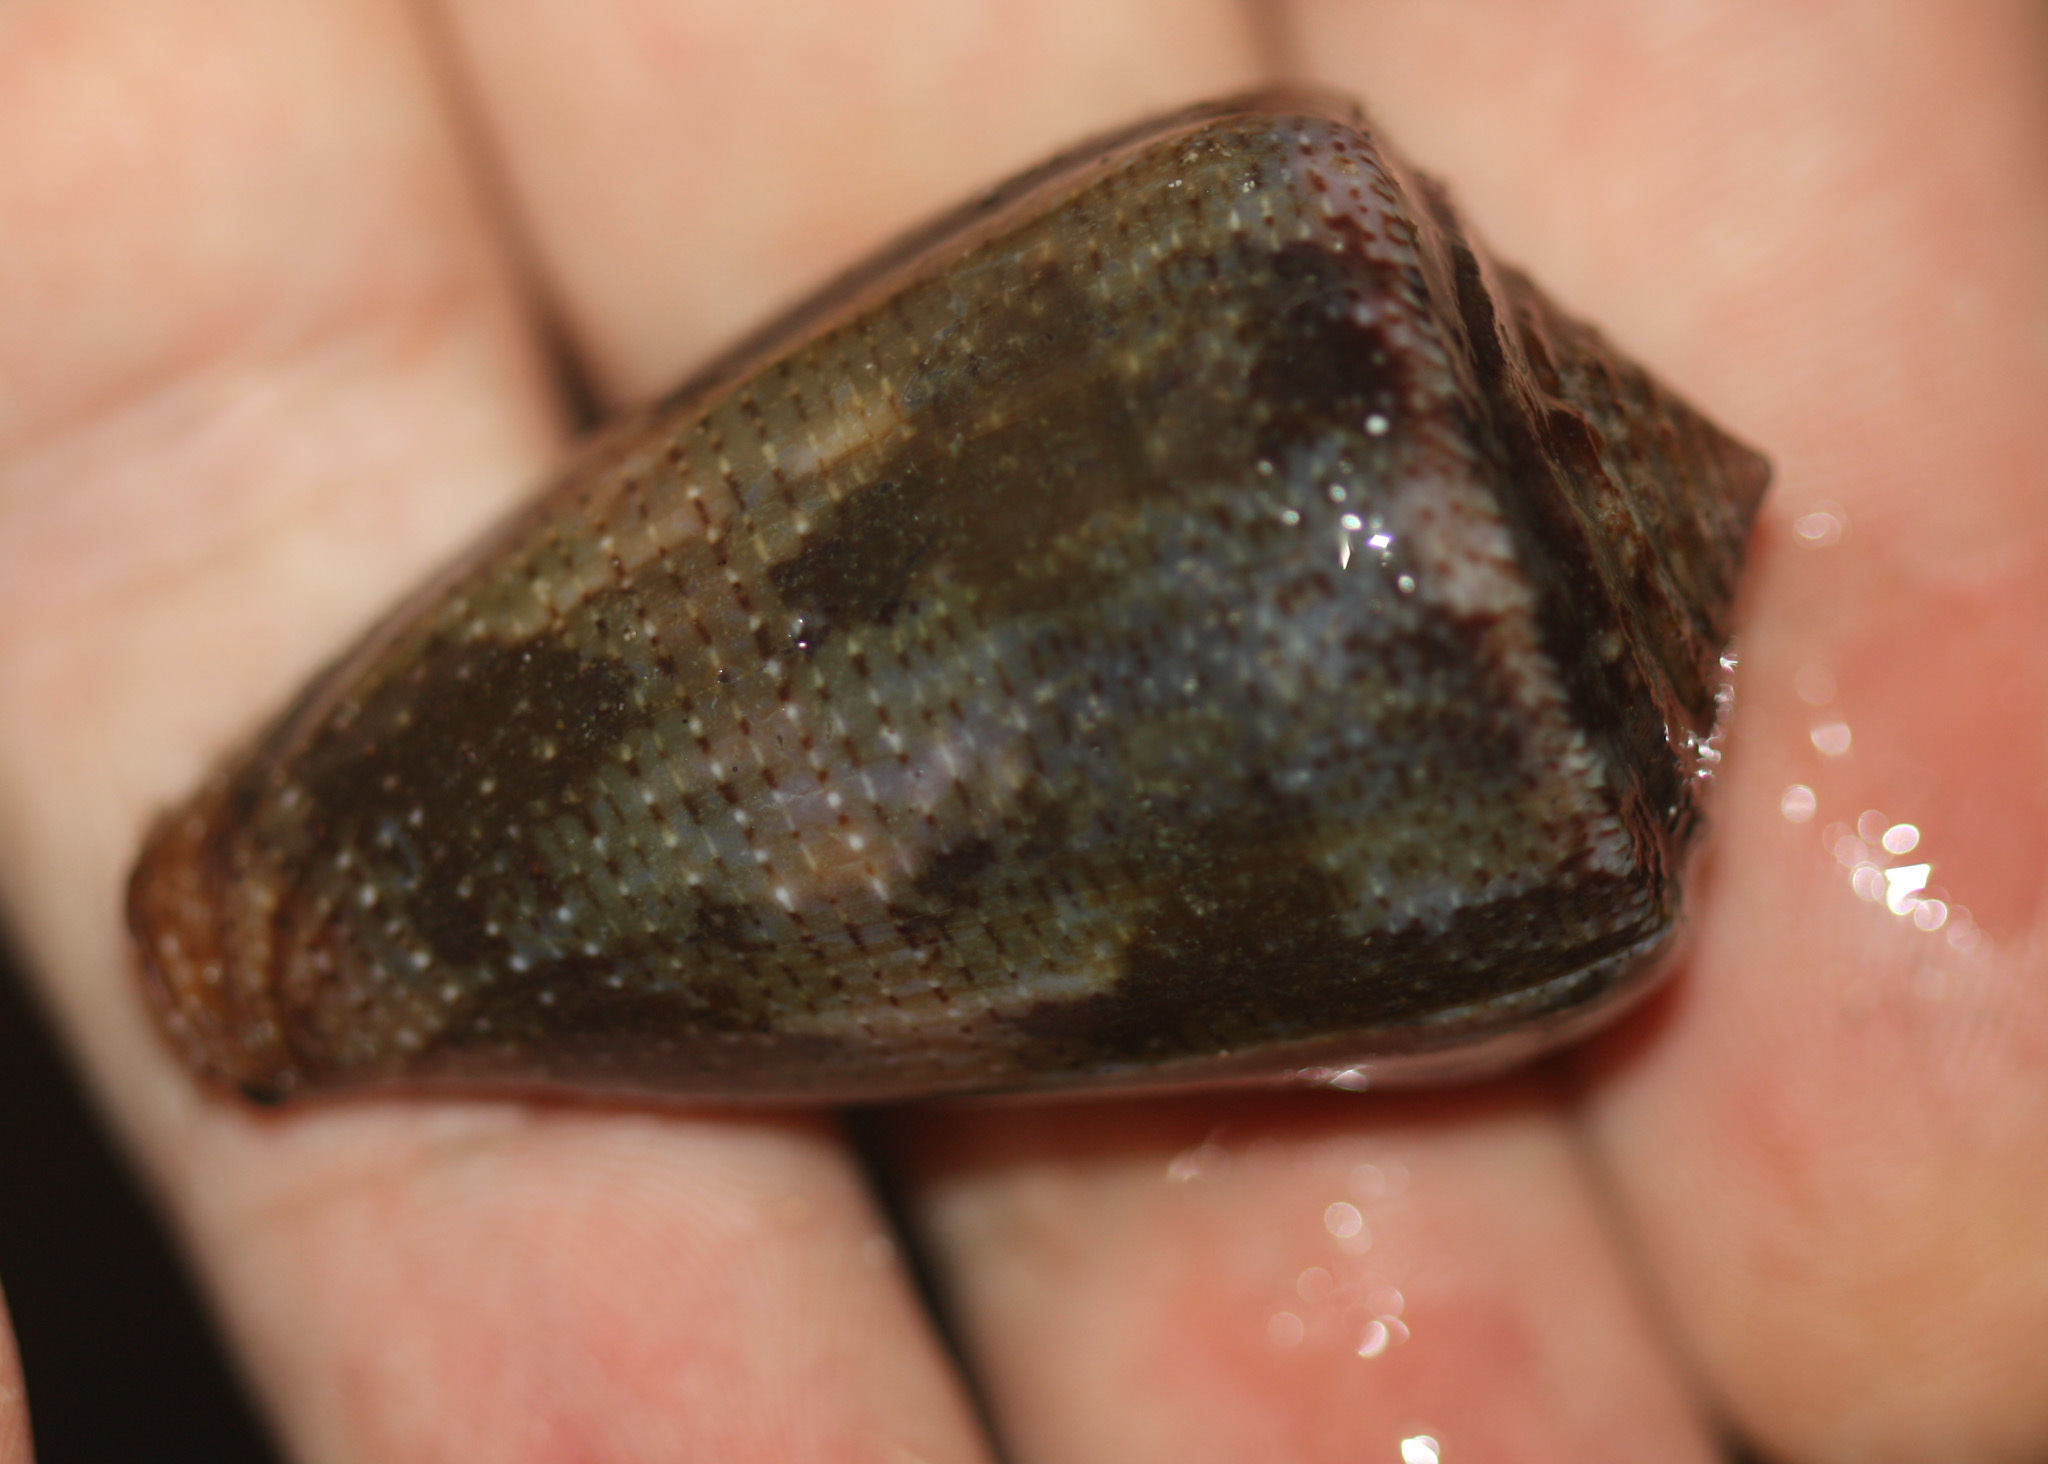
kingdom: Animalia
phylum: Mollusca
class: Gastropoda
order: Neogastropoda
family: Conidae
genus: Conus
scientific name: Conus purpurascens
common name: Purple cone
